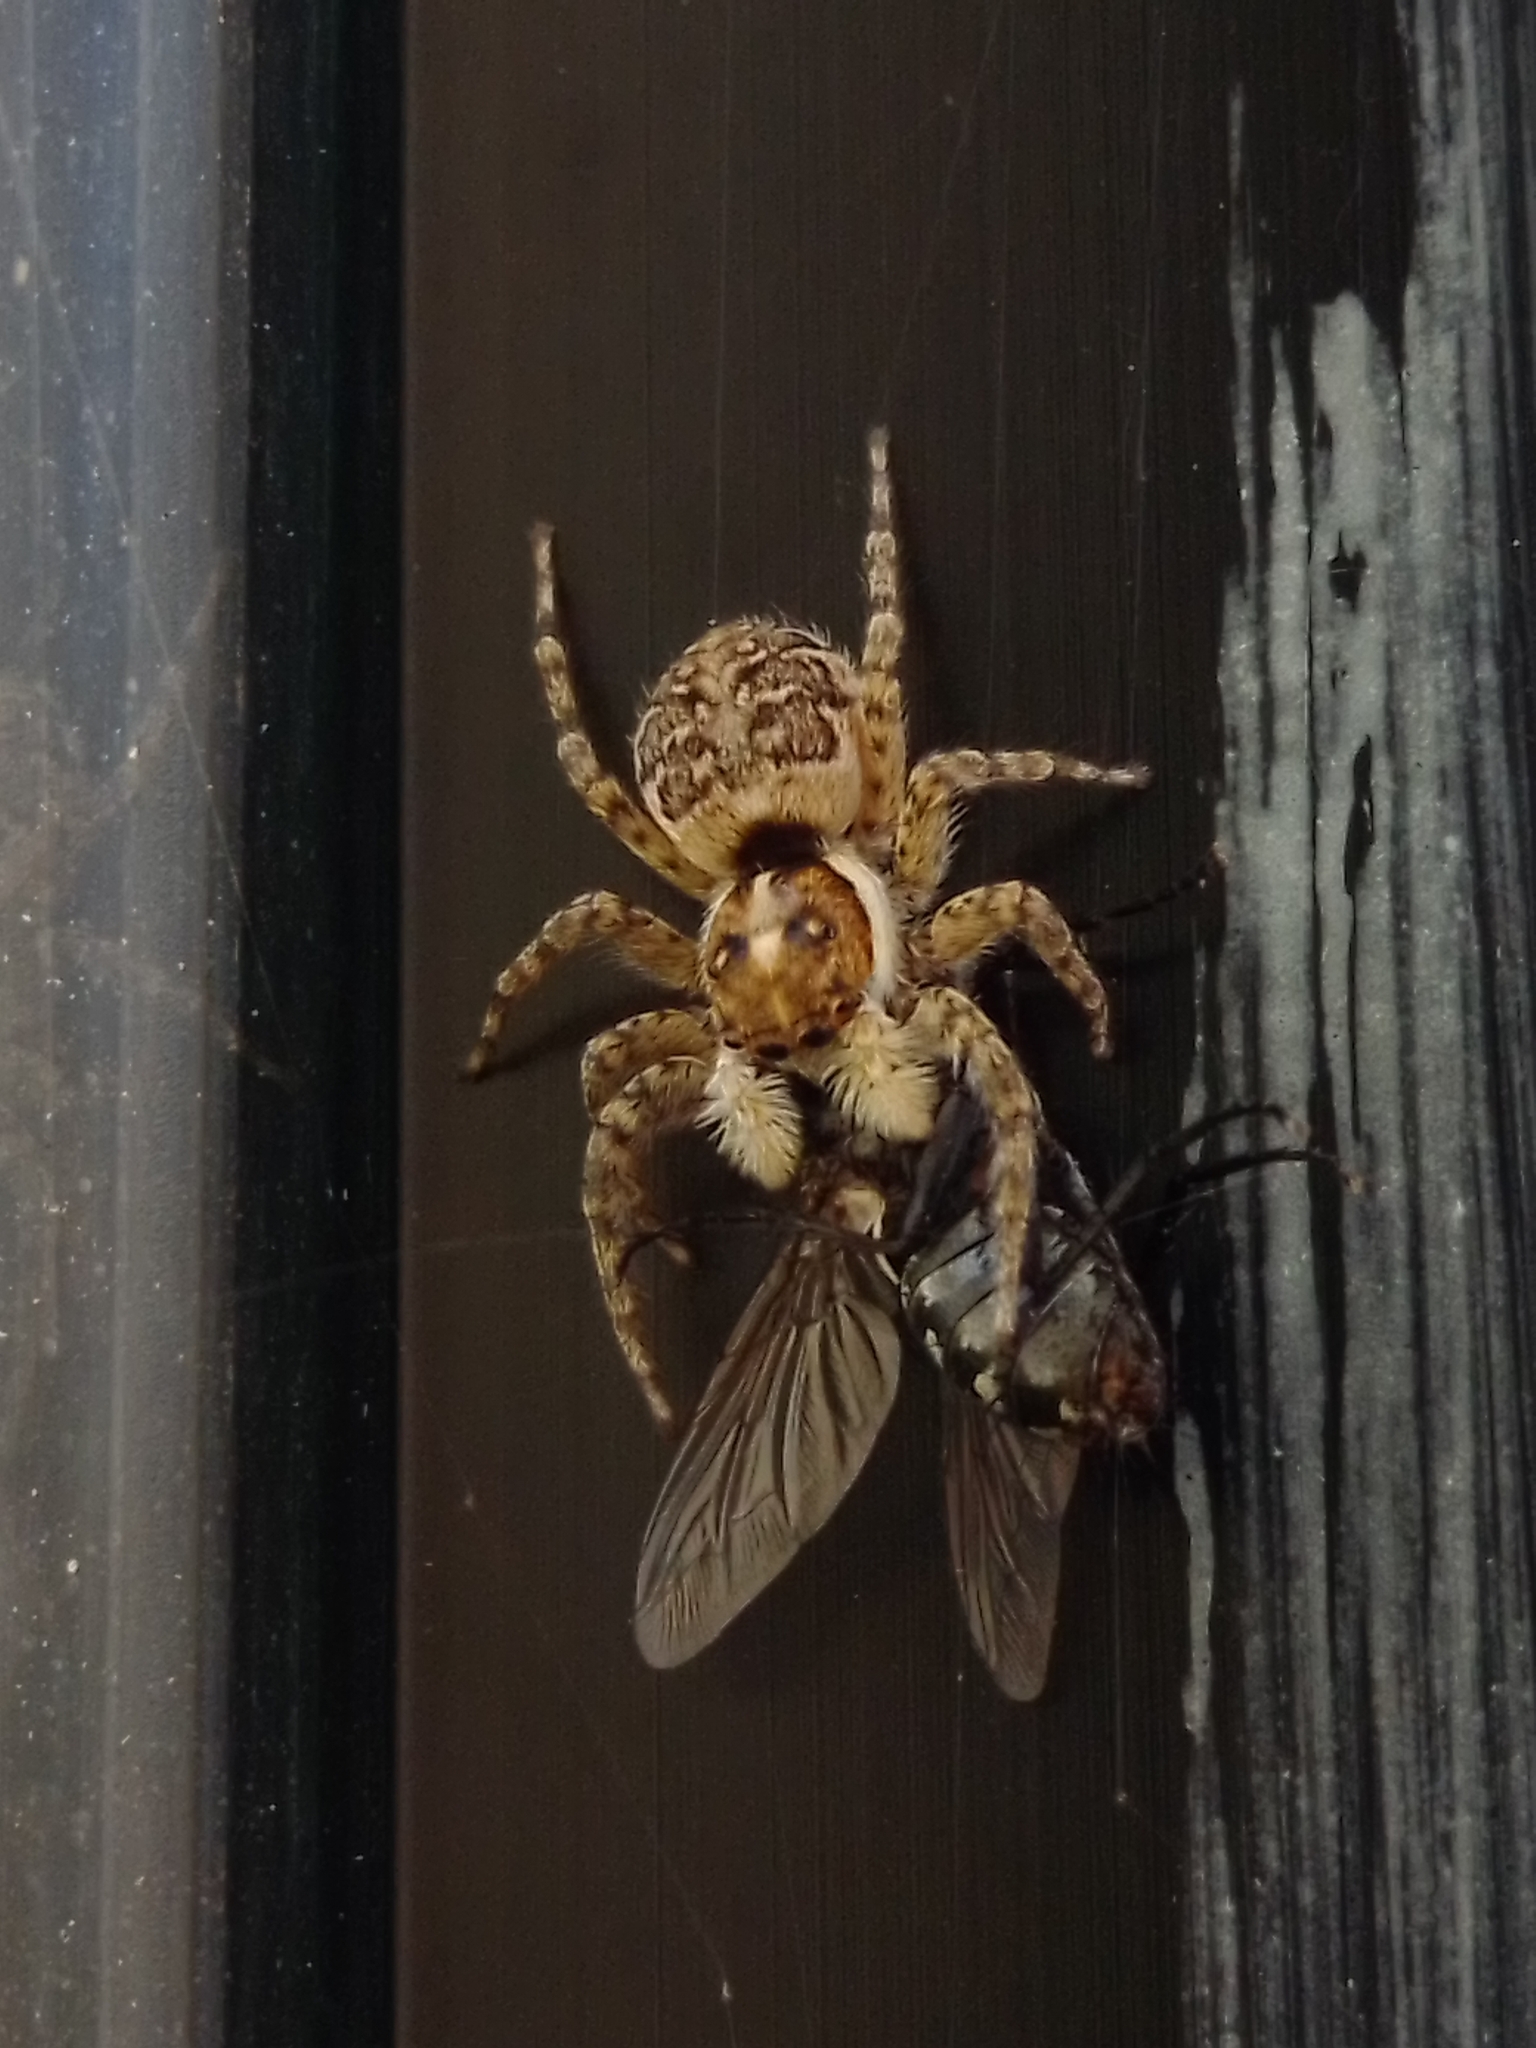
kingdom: Animalia
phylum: Arthropoda
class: Arachnida
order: Araneae
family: Salticidae
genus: Menemerus
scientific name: Menemerus semilimbatus
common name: Jumping spider
